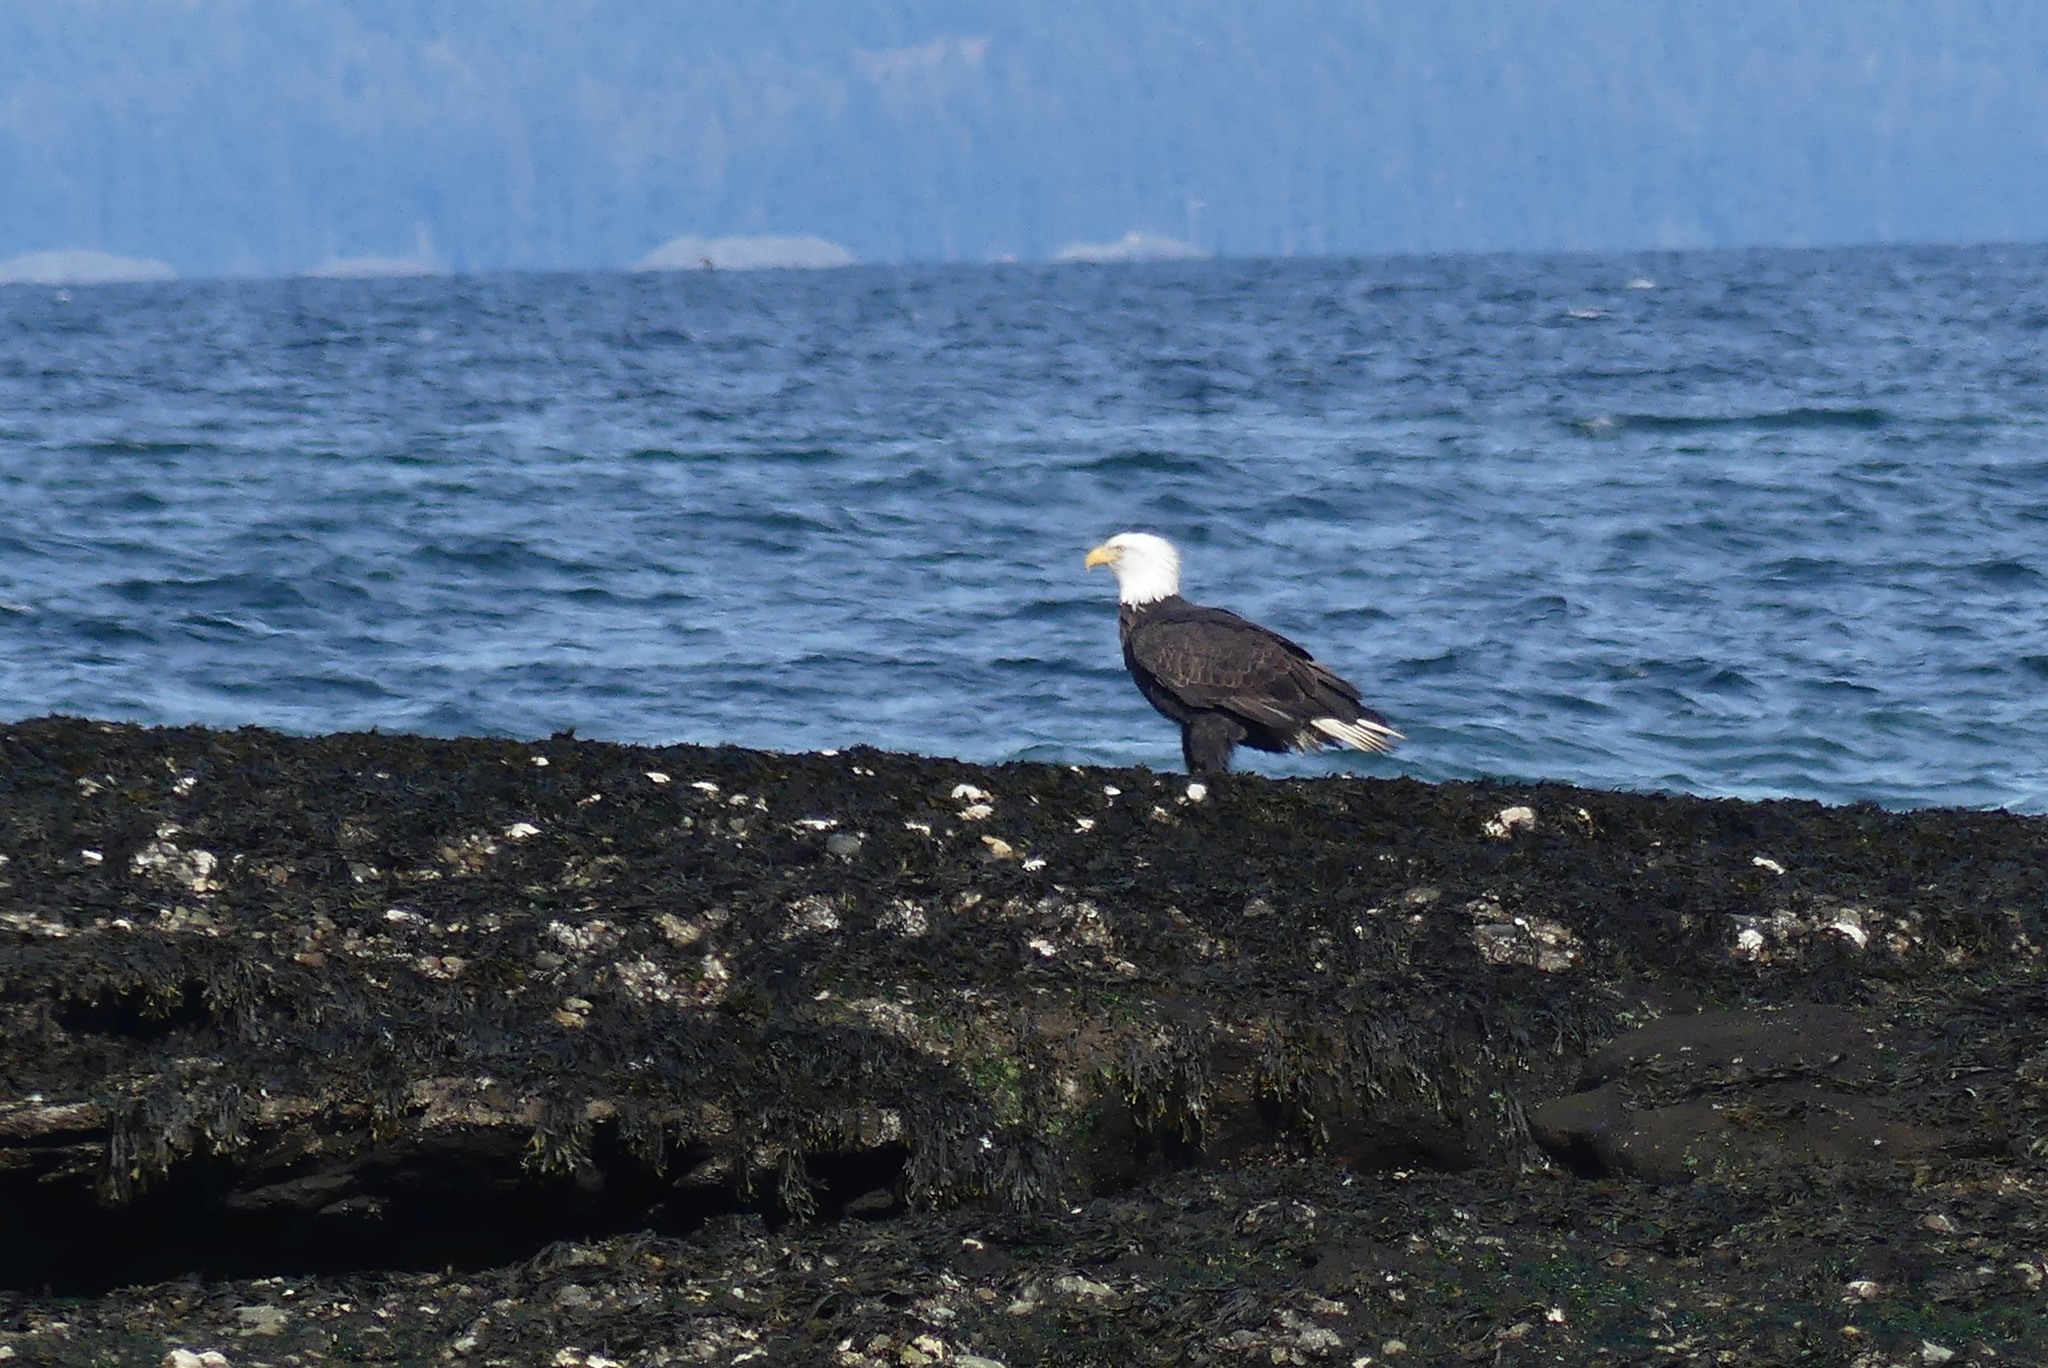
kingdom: Animalia
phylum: Chordata
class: Aves
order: Accipitriformes
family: Accipitridae
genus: Haliaeetus
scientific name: Haliaeetus leucocephalus
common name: Bald eagle
